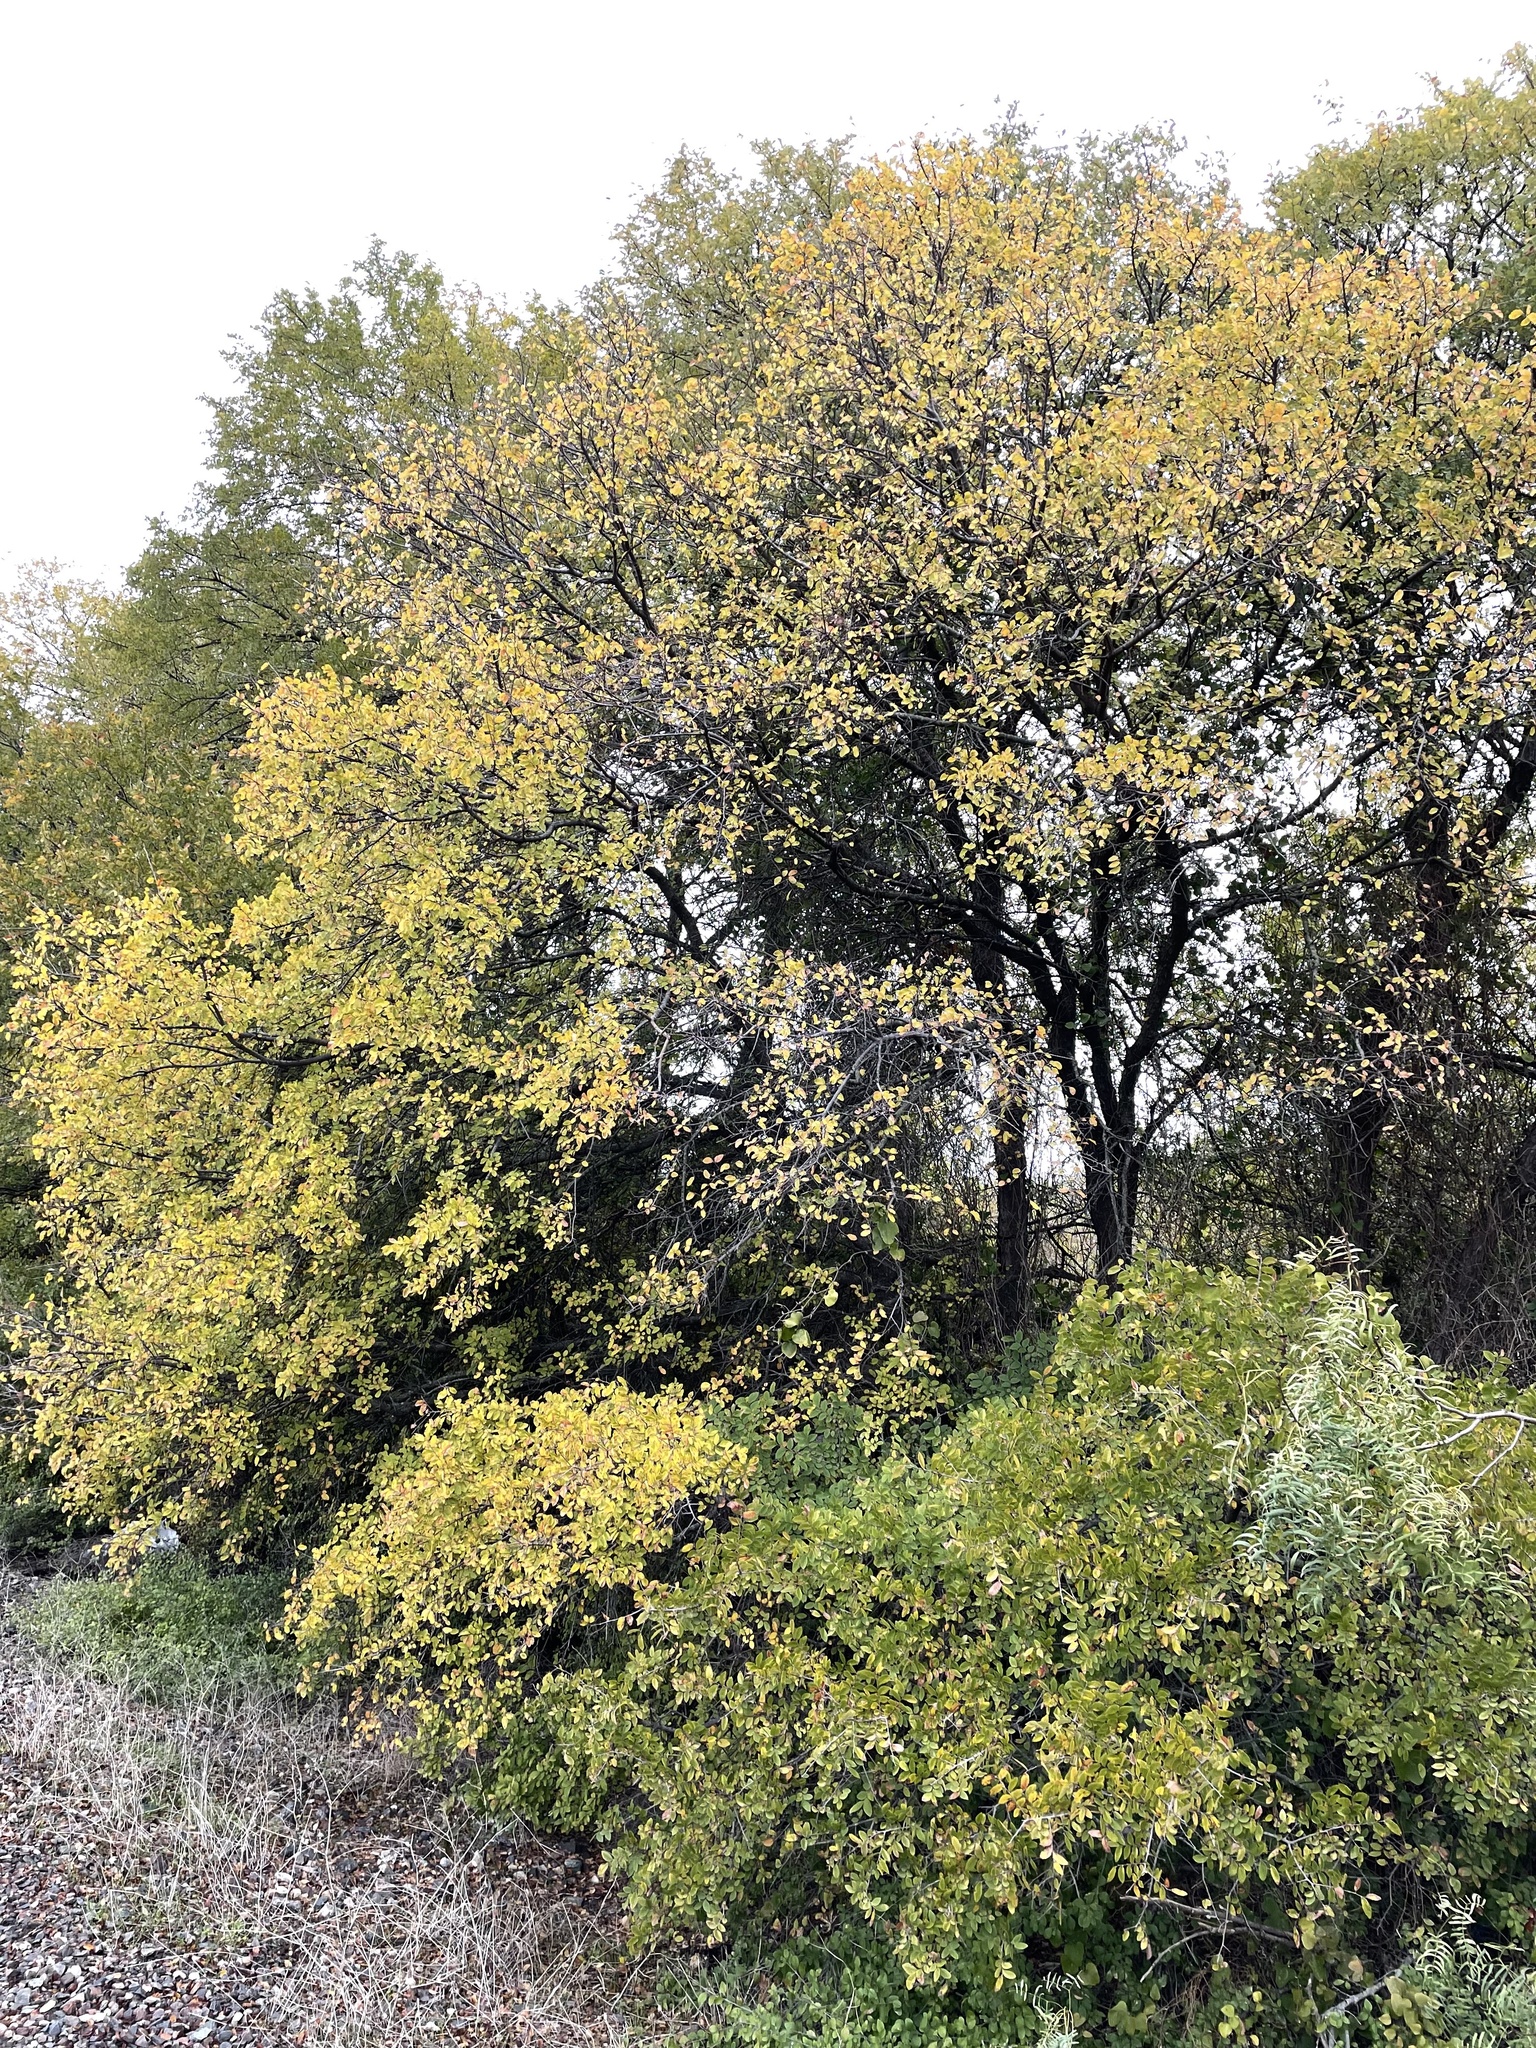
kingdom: Plantae
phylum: Tracheophyta
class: Magnoliopsida
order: Rosales
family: Ulmaceae
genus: Ulmus
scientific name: Ulmus crassifolia
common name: Basket elm
